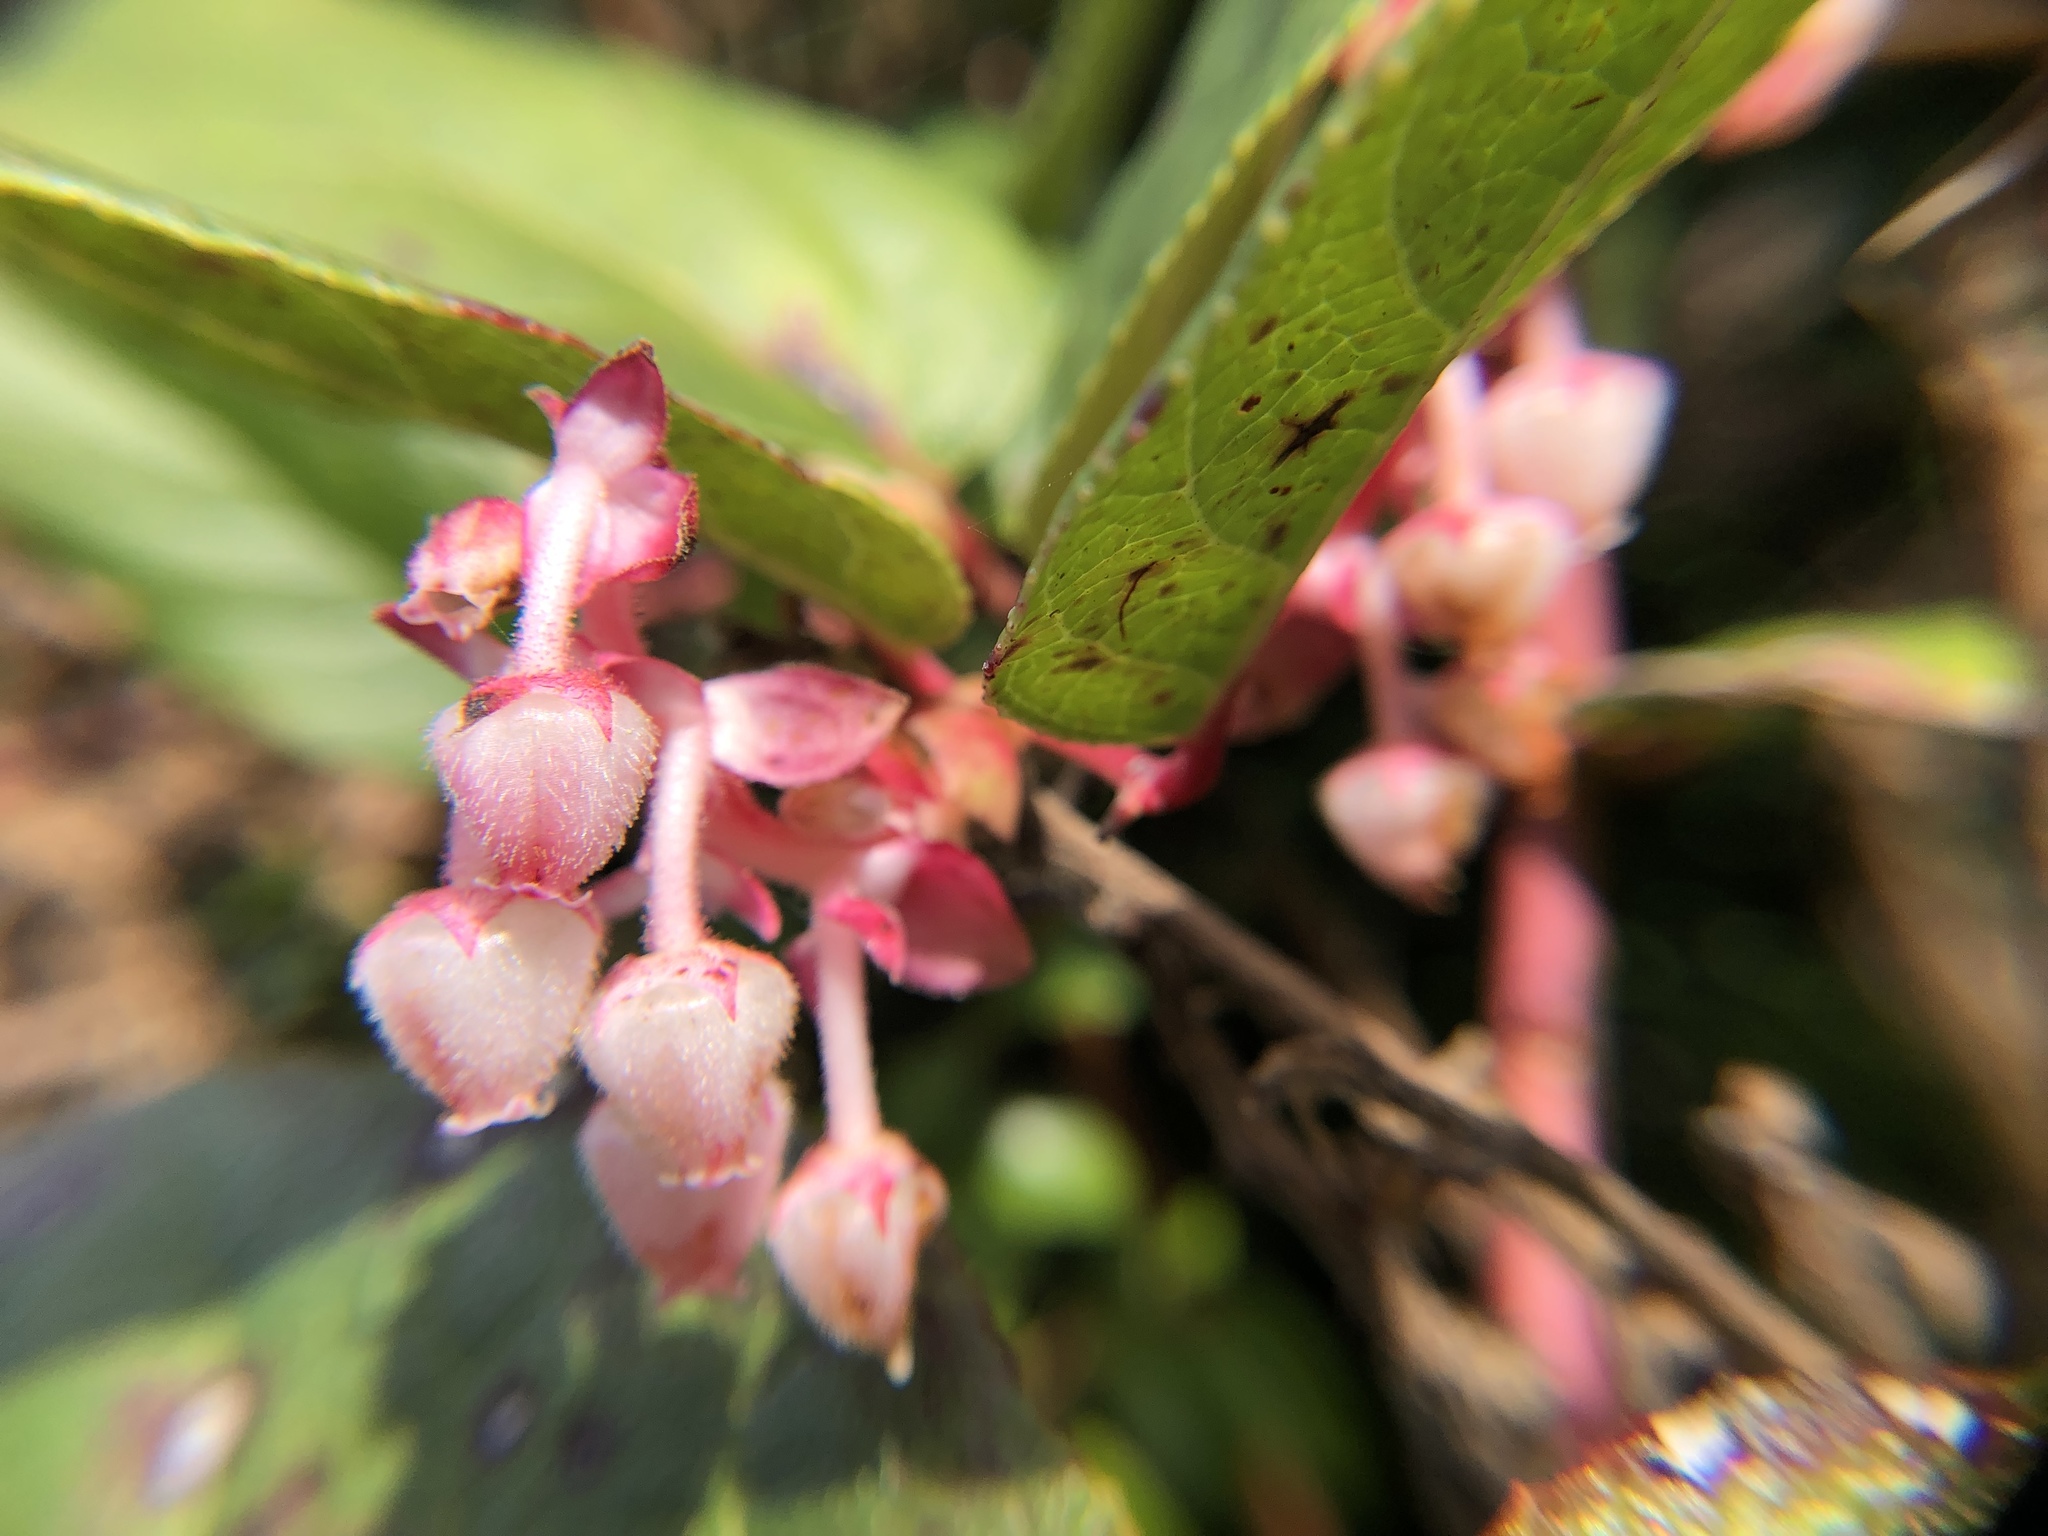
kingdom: Plantae
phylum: Tracheophyta
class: Magnoliopsida
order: Ericales
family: Ericaceae
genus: Gaultheria
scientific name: Gaultheria shallon
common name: Shallon
